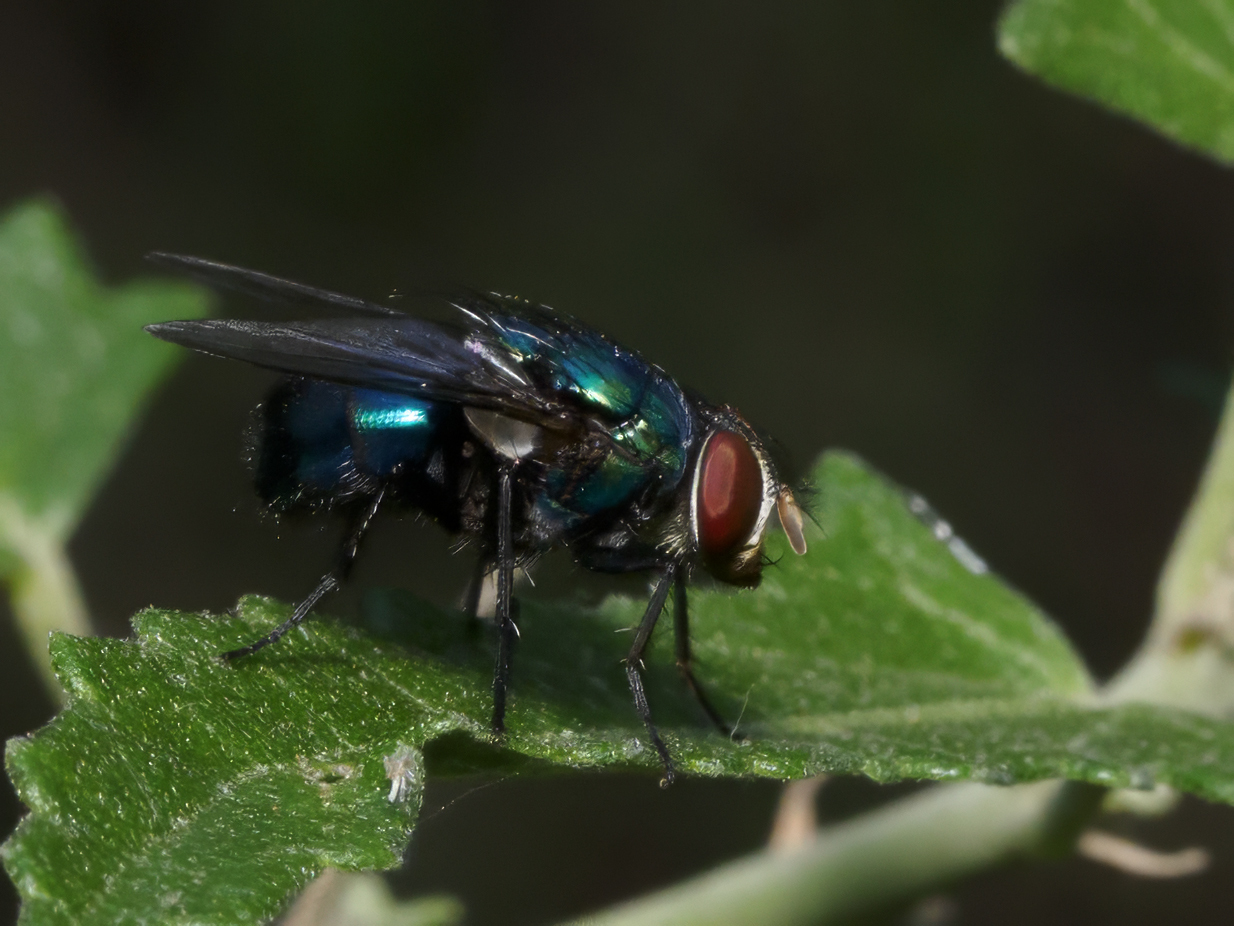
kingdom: Animalia
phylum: Arthropoda
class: Insecta
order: Diptera
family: Calliphoridae
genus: Lucilia
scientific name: Lucilia eximia
